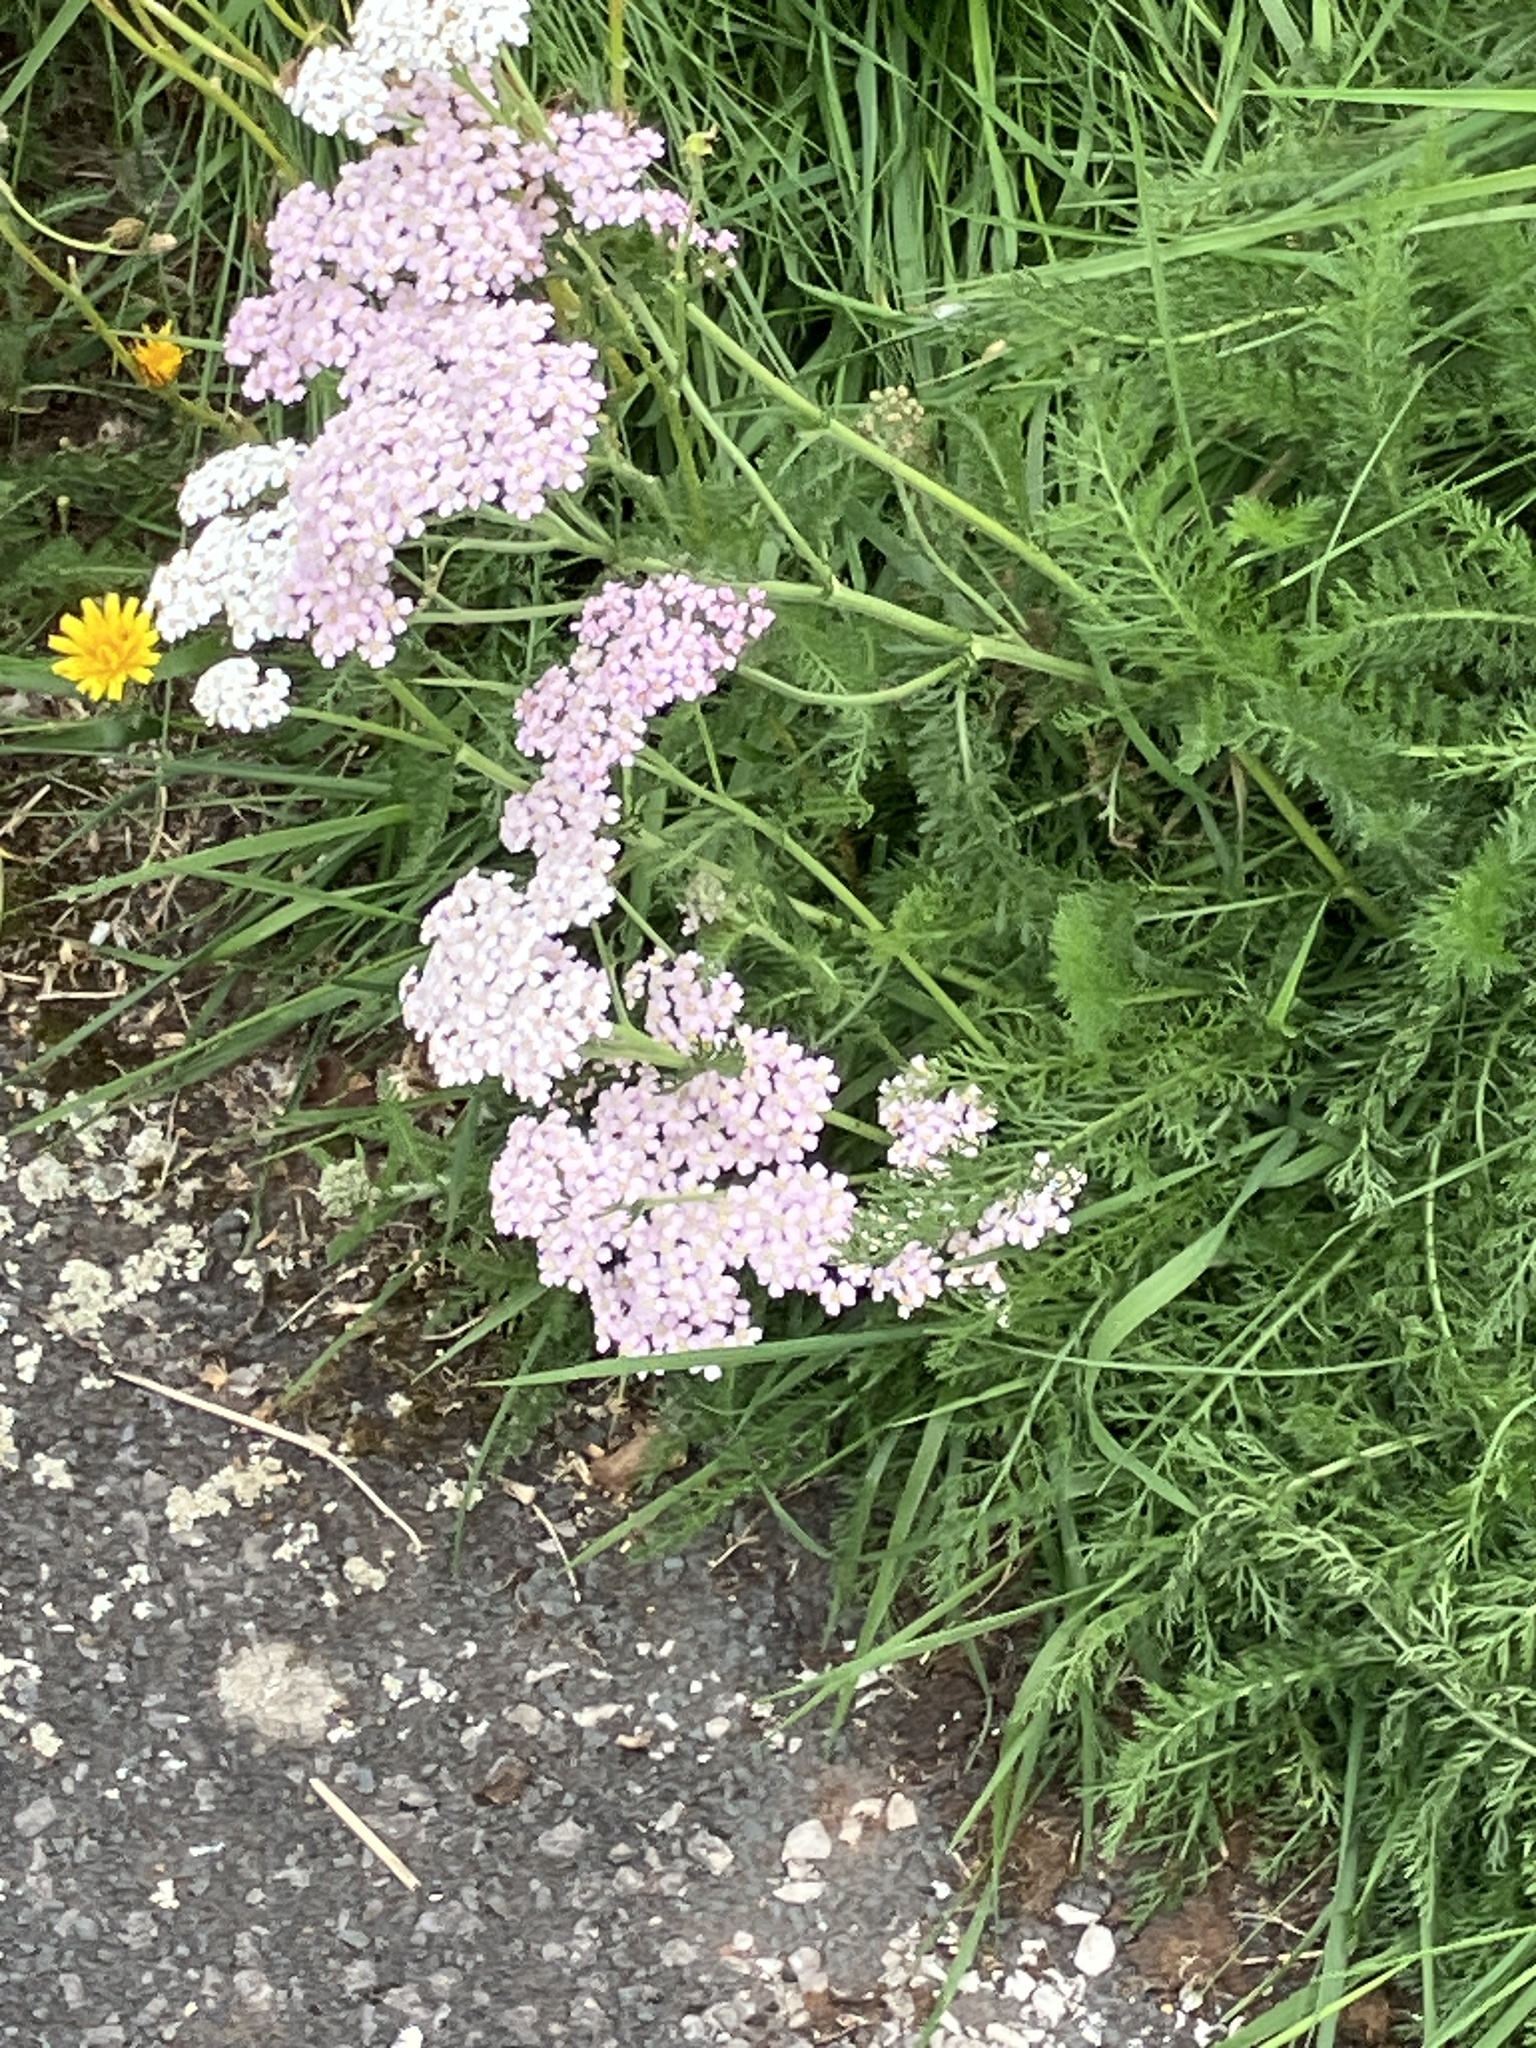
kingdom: Plantae
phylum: Tracheophyta
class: Magnoliopsida
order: Asterales
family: Asteraceae
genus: Achillea
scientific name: Achillea millefolium
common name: Yarrow
